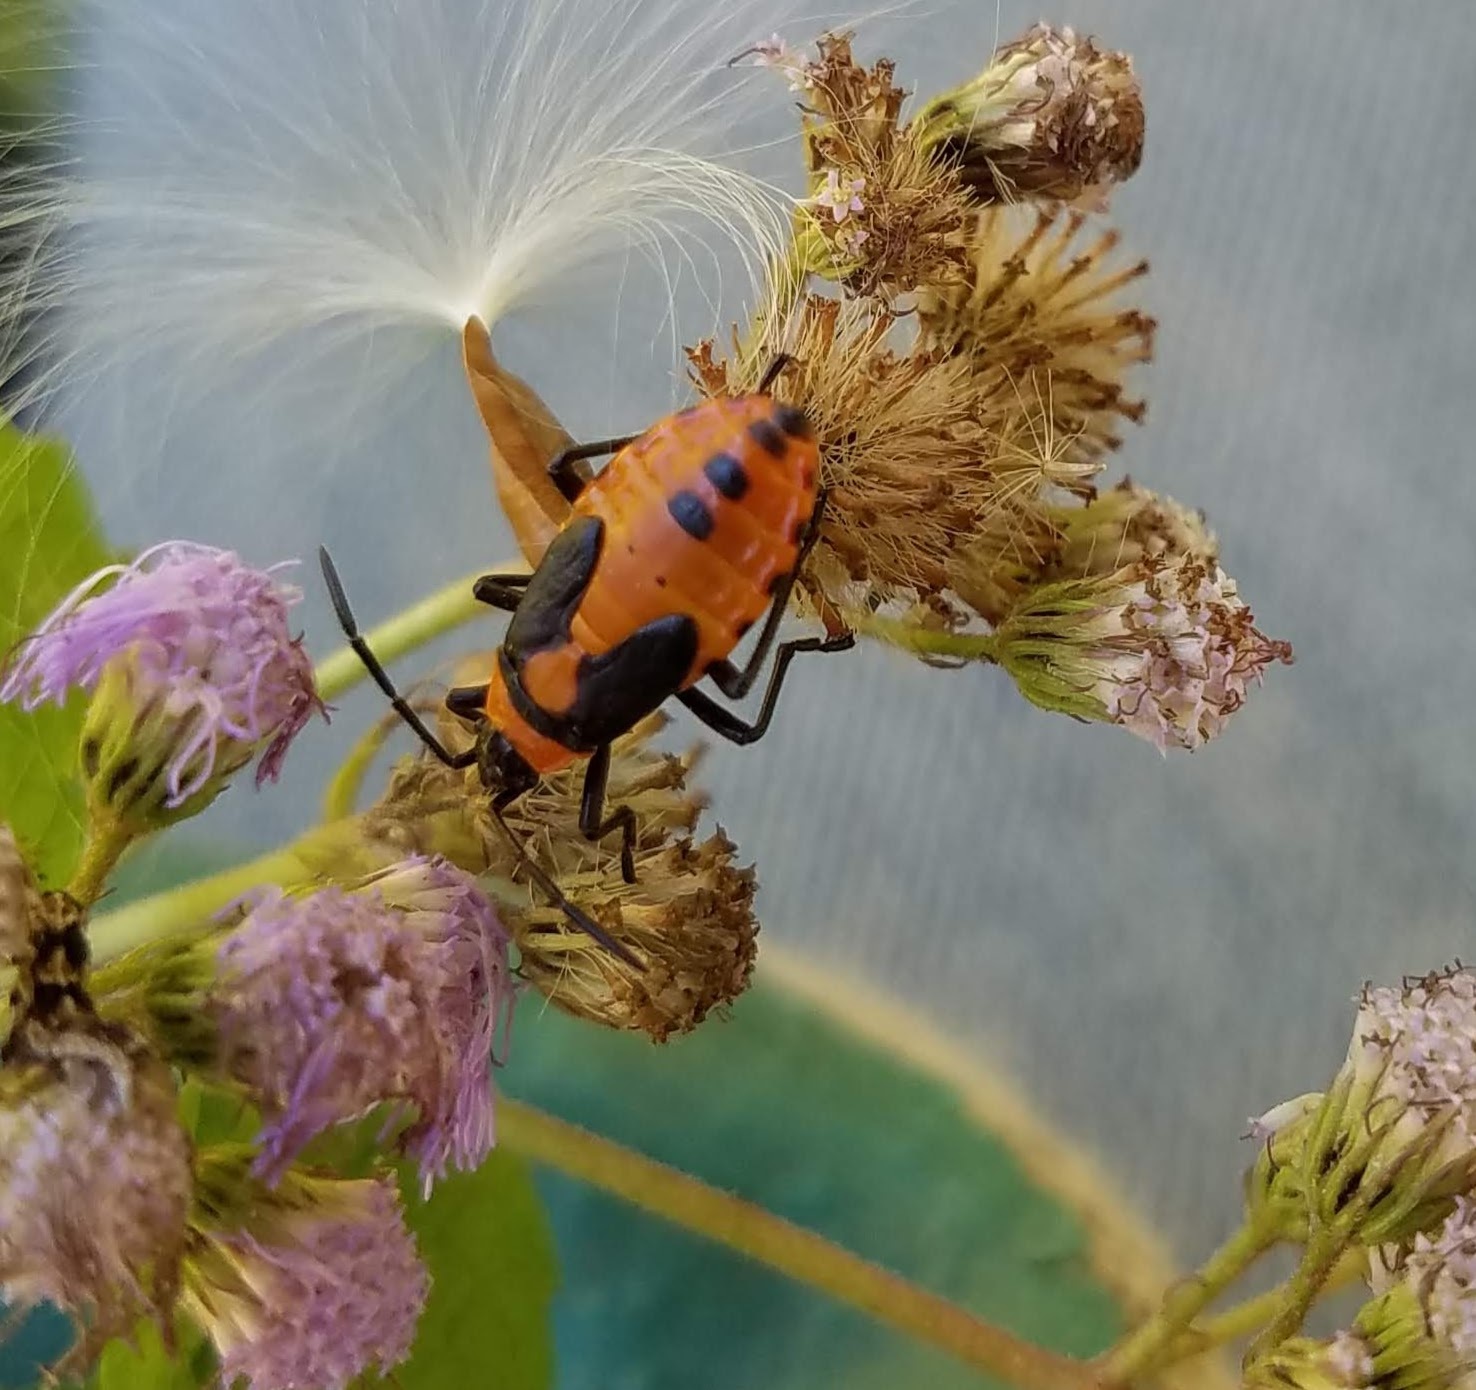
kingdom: Animalia
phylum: Arthropoda
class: Insecta
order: Hemiptera
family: Lygaeidae
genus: Oncopeltus
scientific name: Oncopeltus fasciatus
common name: Large milkweed bug
